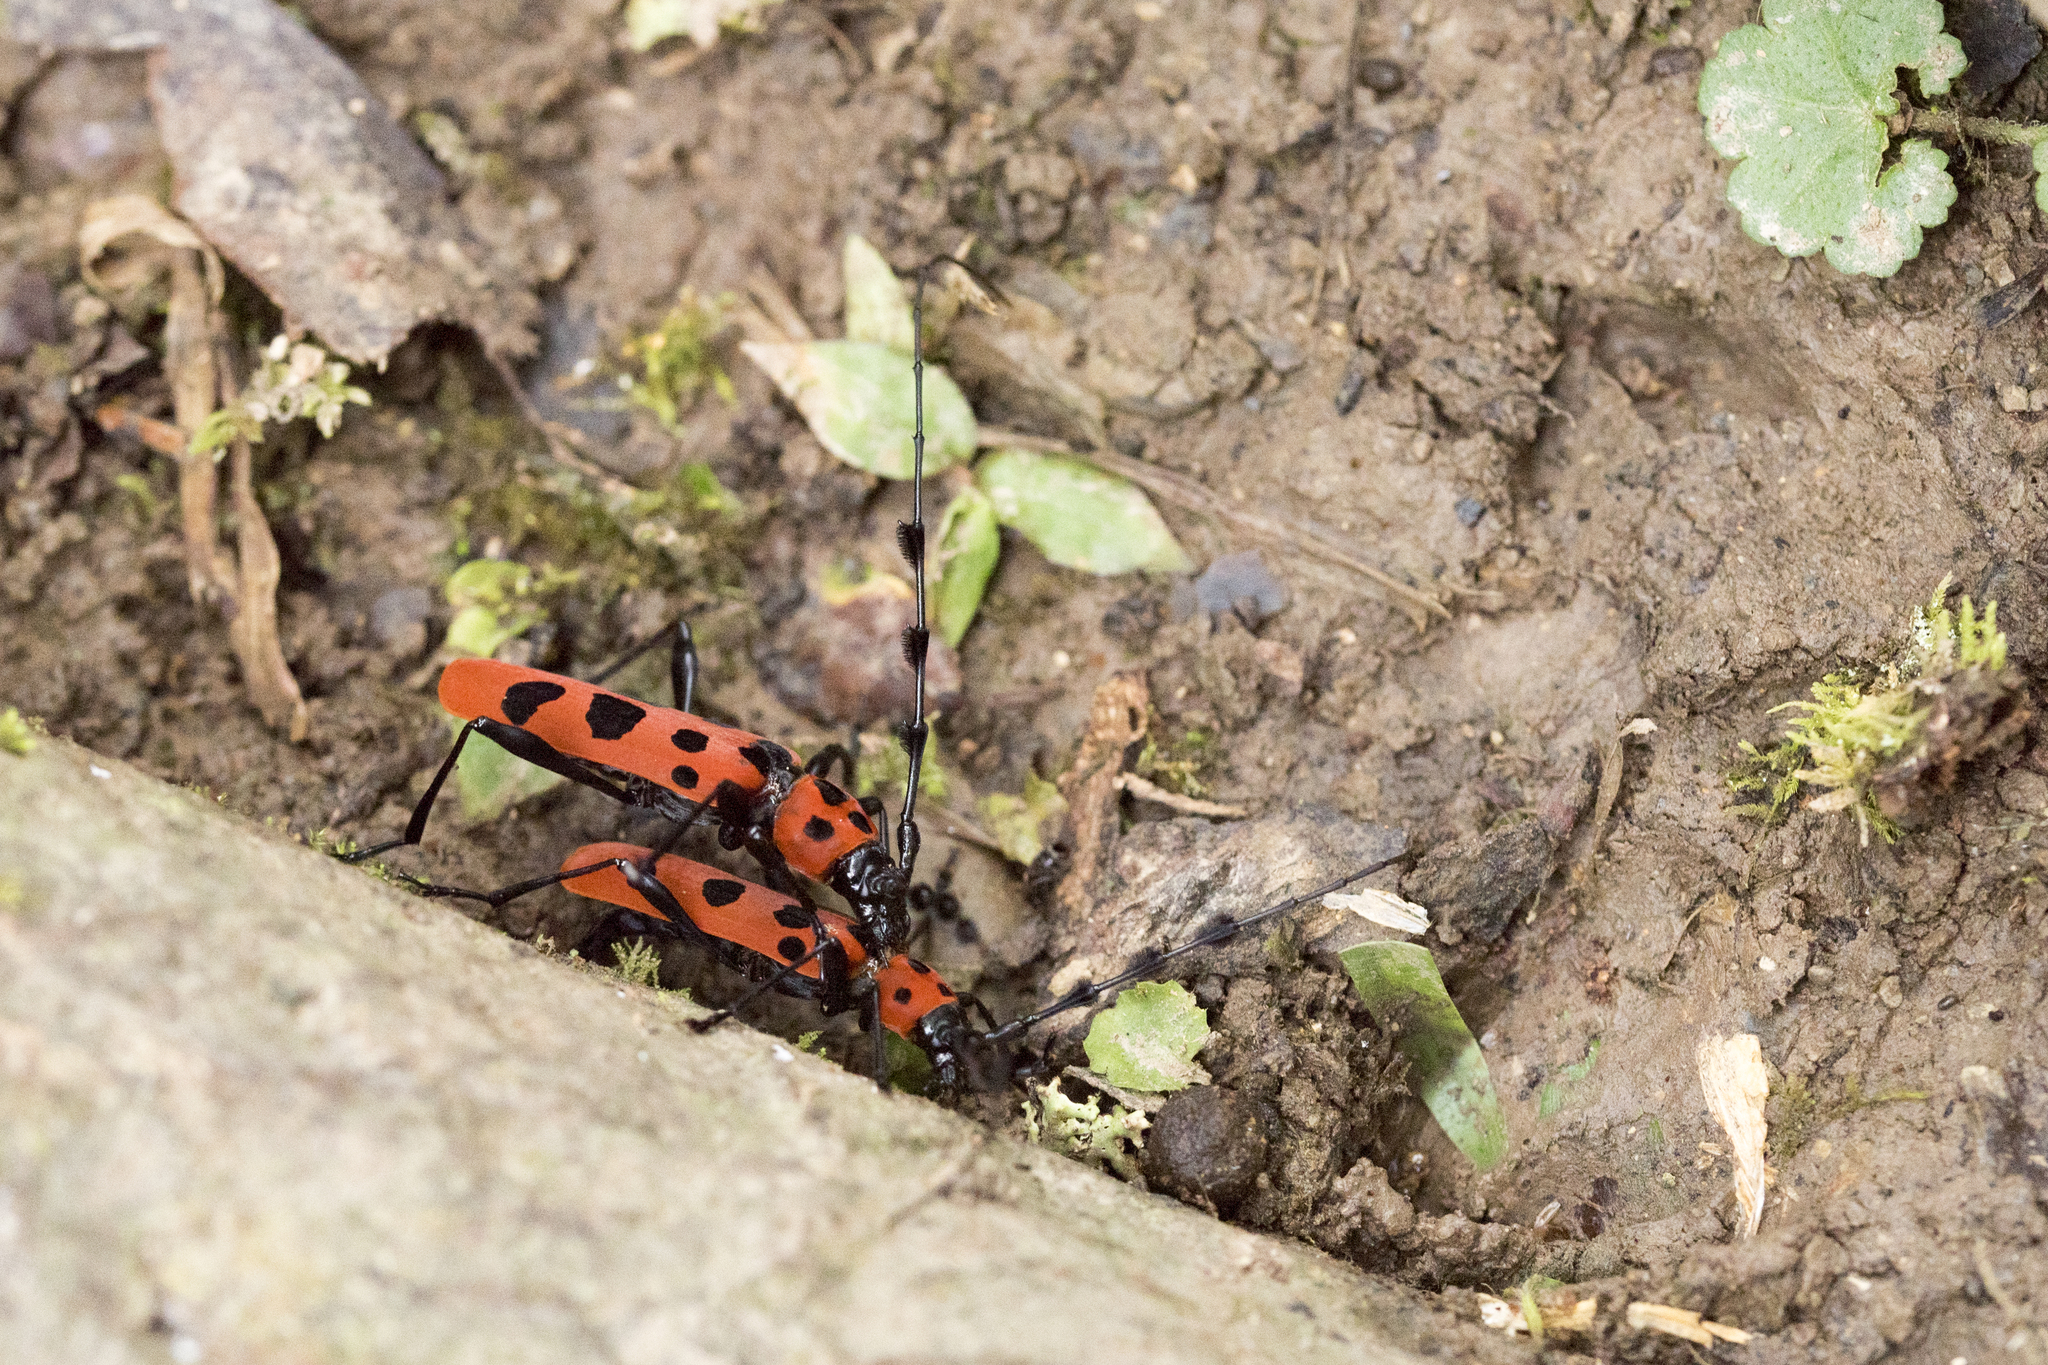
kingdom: Animalia
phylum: Arthropoda
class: Insecta
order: Coleoptera
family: Cerambycidae
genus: Rosalia
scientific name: Rosalia lesnei
